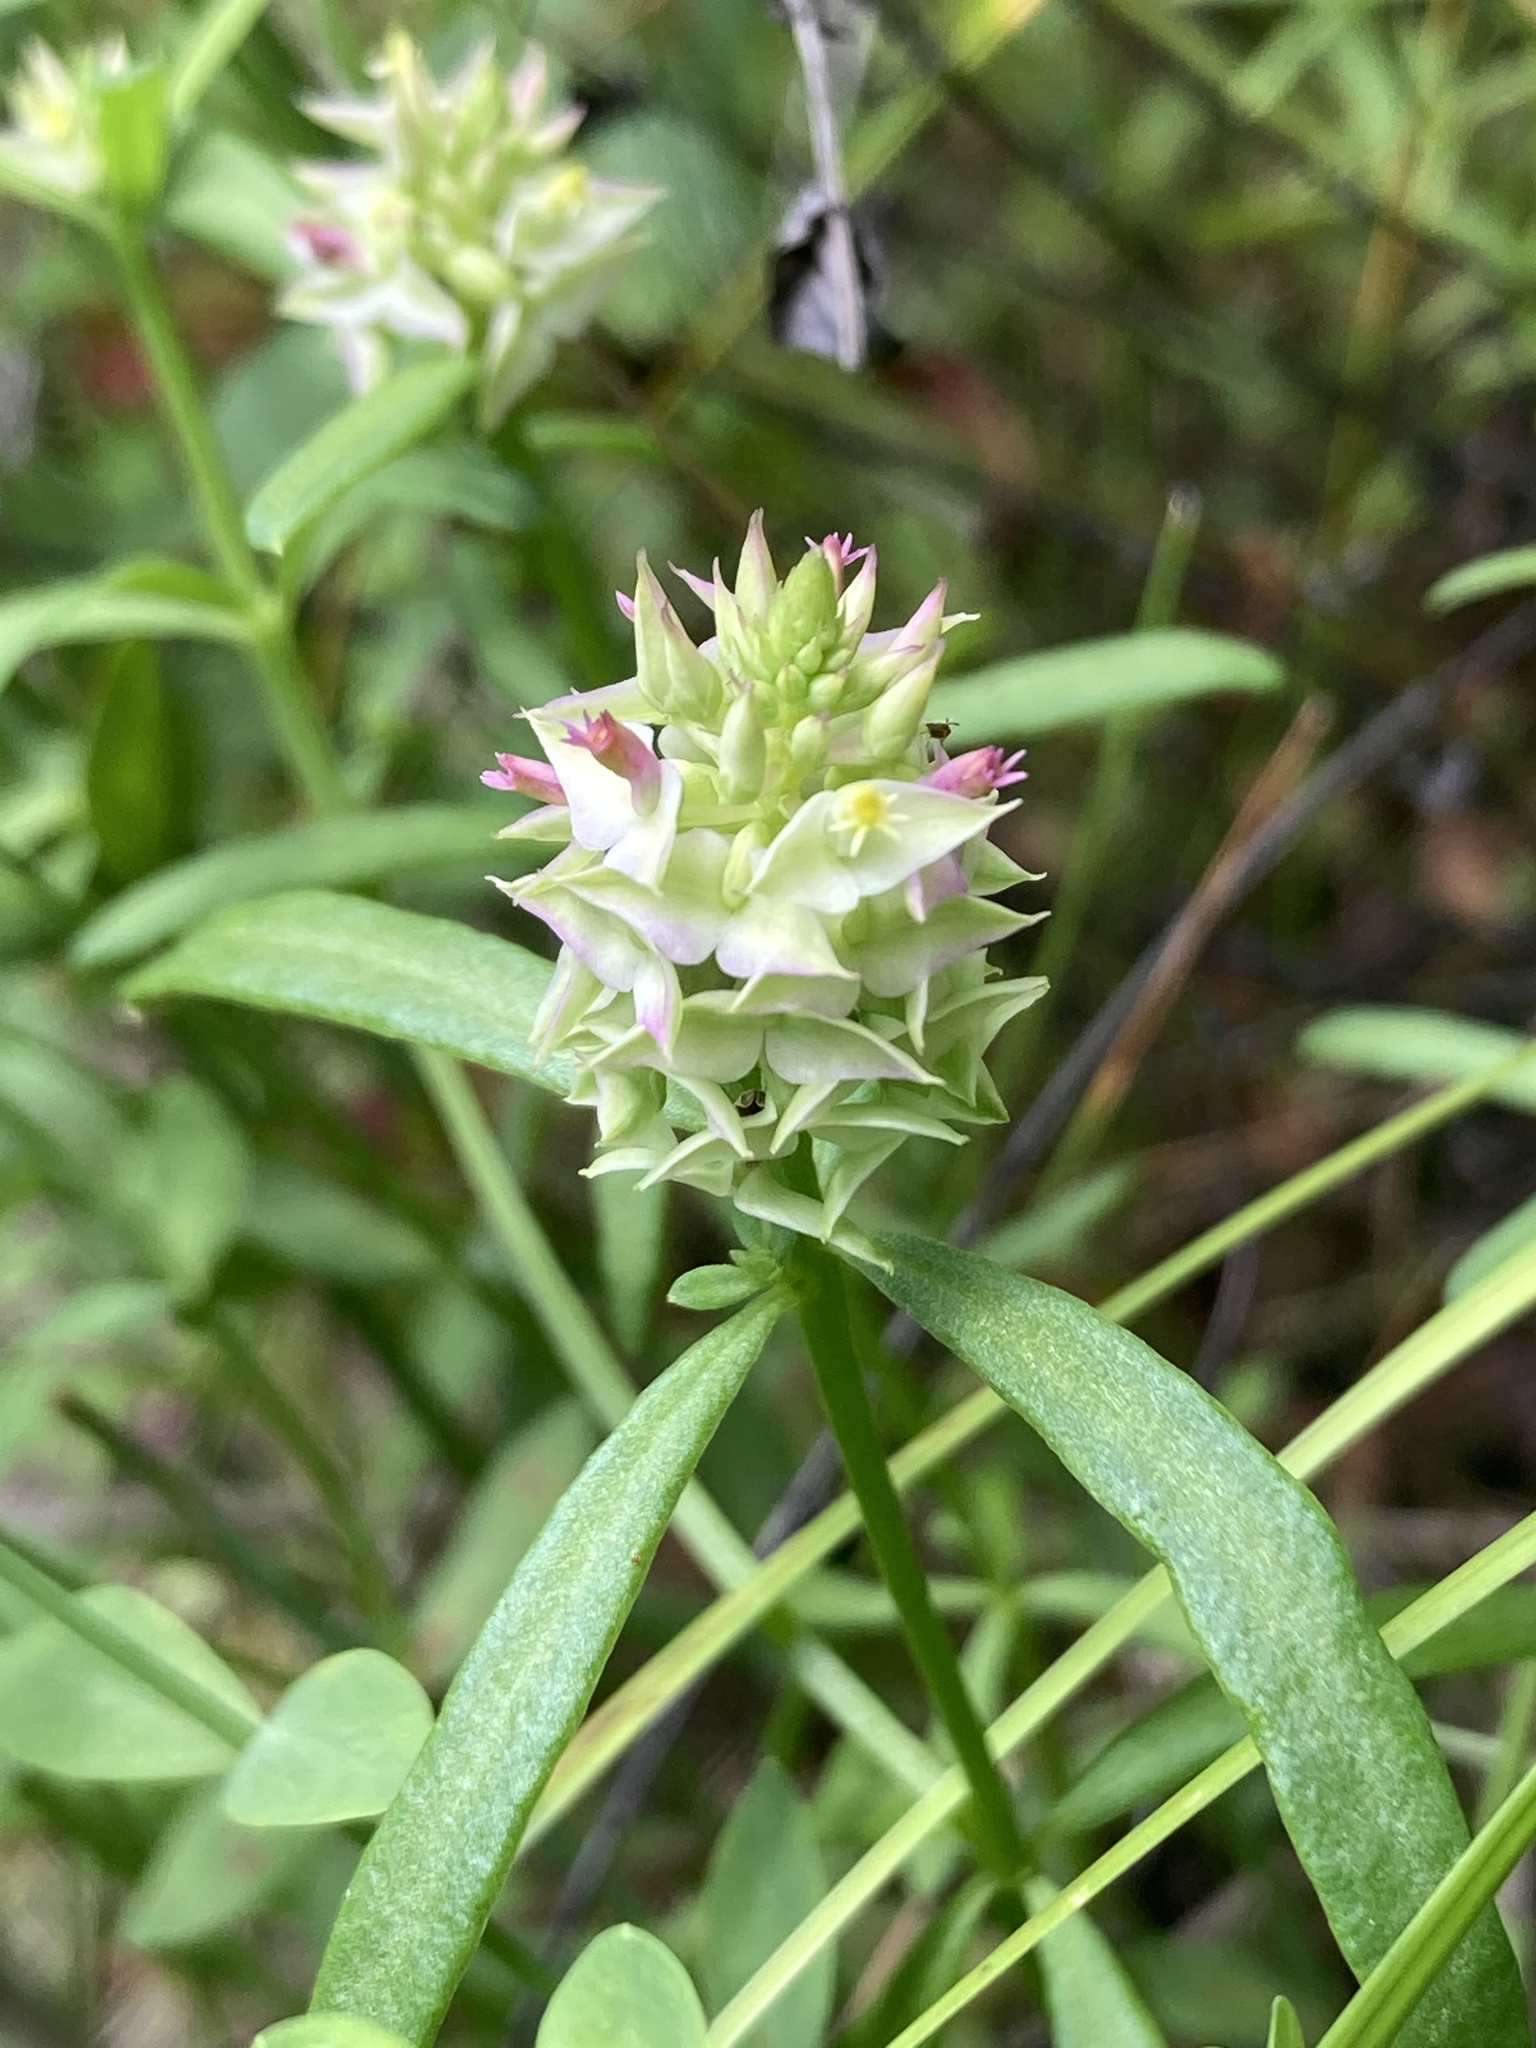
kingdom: Plantae
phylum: Tracheophyta
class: Magnoliopsida
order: Fabales
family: Polygalaceae
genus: Polygala
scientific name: Polygala cruciata
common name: Drumheads
